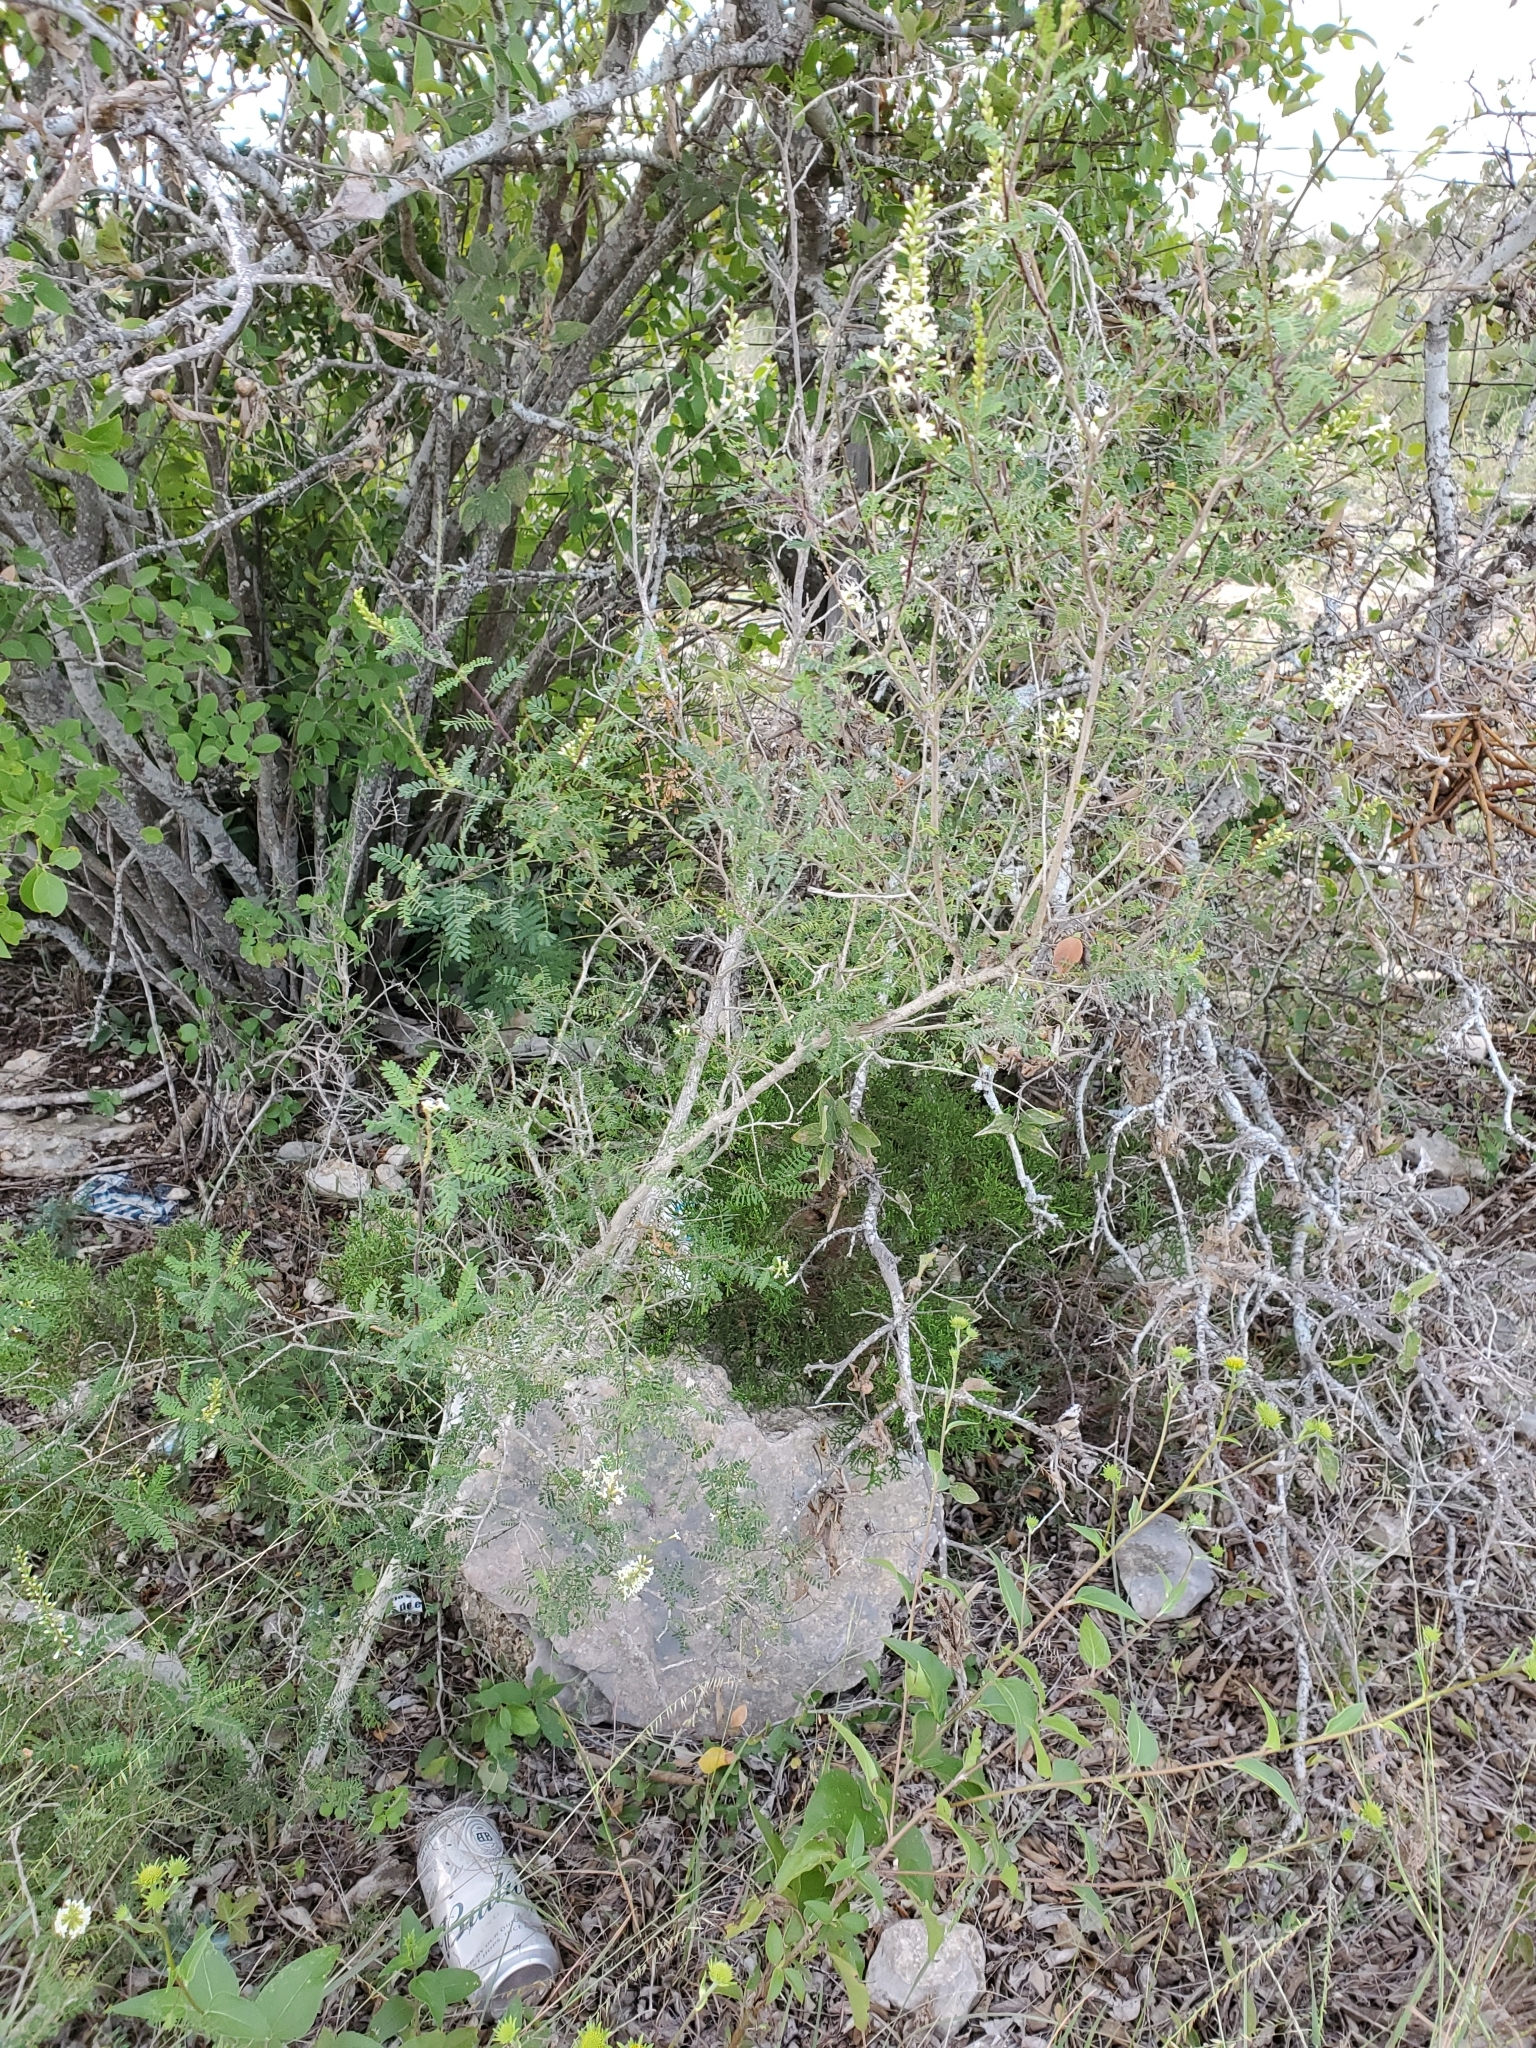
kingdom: Plantae
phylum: Tracheophyta
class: Magnoliopsida
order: Fabales
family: Fabaceae
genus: Eysenhardtia
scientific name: Eysenhardtia texana
